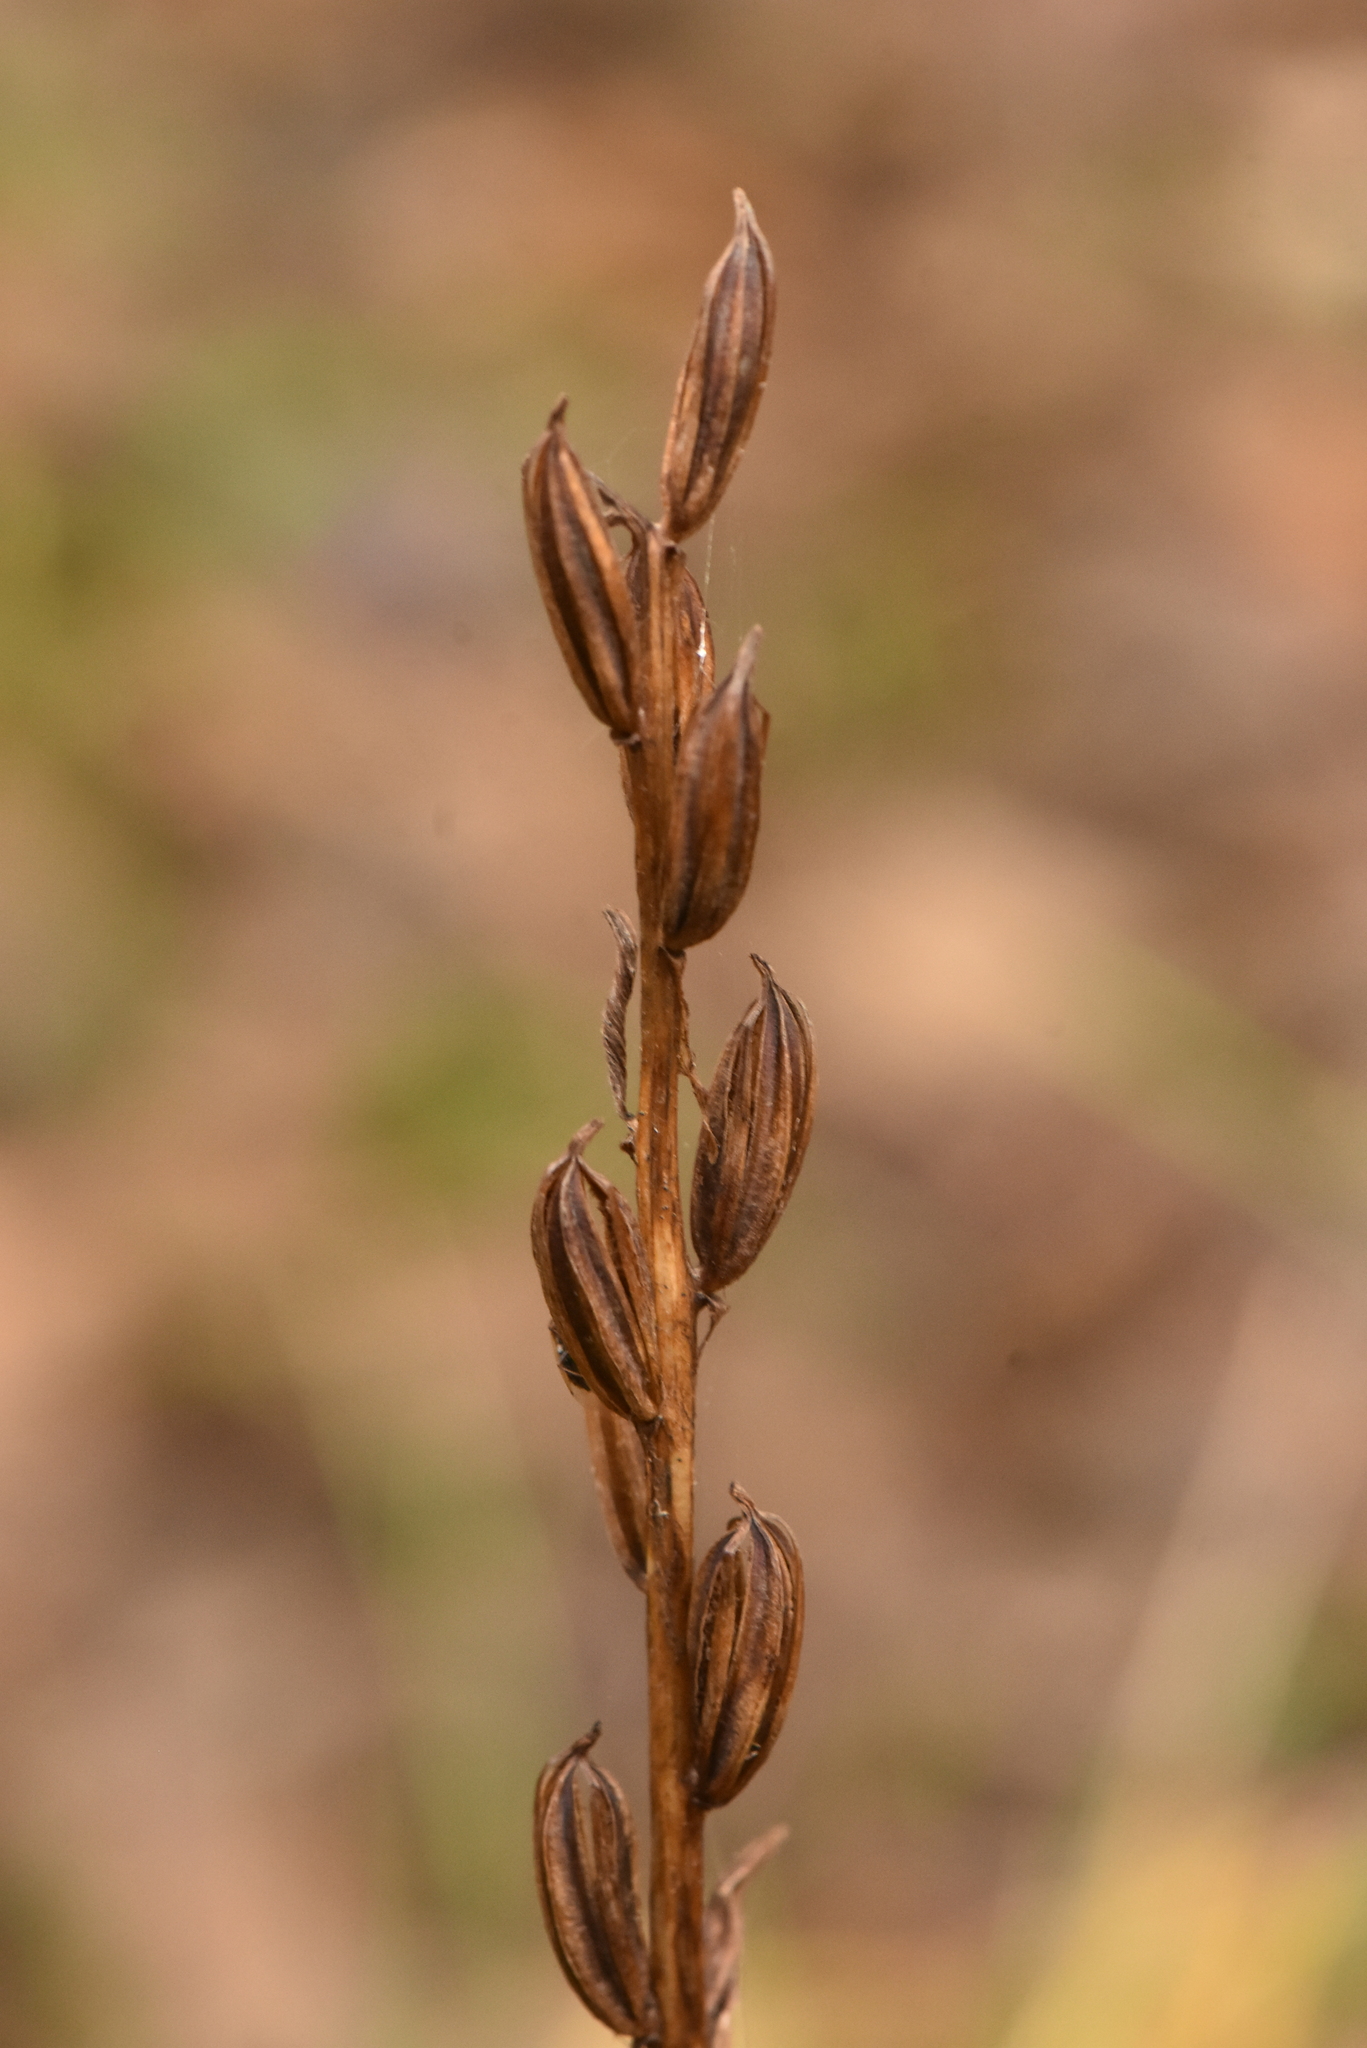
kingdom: Plantae
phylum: Tracheophyta
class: Liliopsida
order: Asparagales
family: Orchidaceae
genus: Platanthera
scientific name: Platanthera
